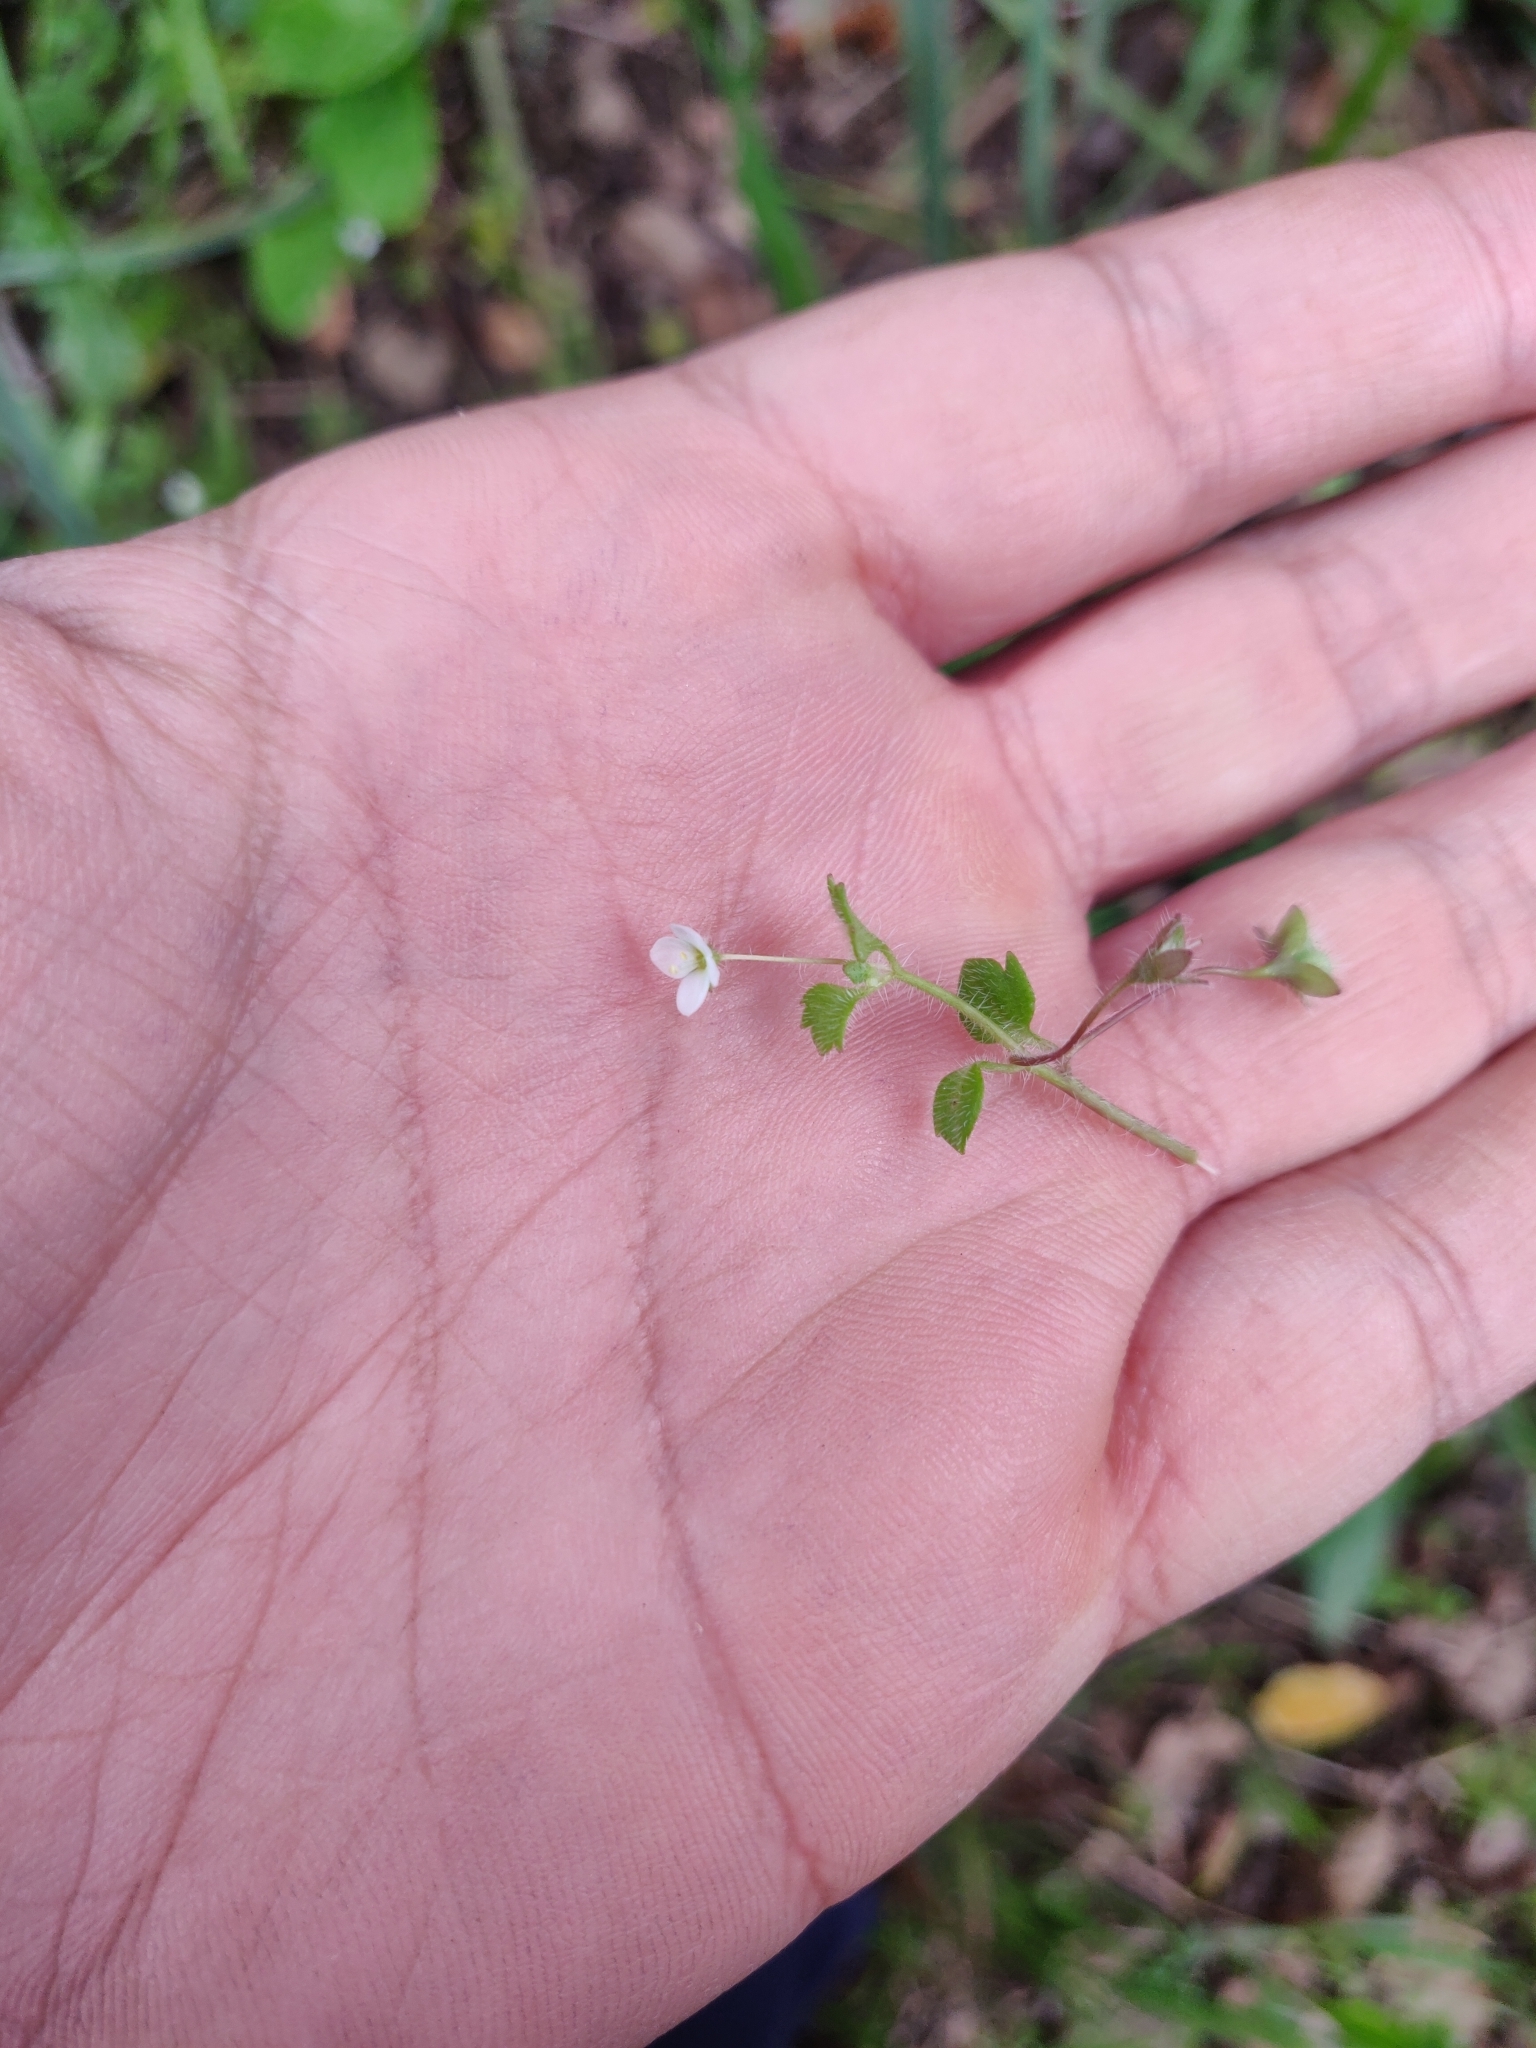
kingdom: Plantae
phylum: Tracheophyta
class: Magnoliopsida
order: Lamiales
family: Plantaginaceae
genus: Veronica
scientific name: Veronica cymbalaria
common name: Pale speedwell
